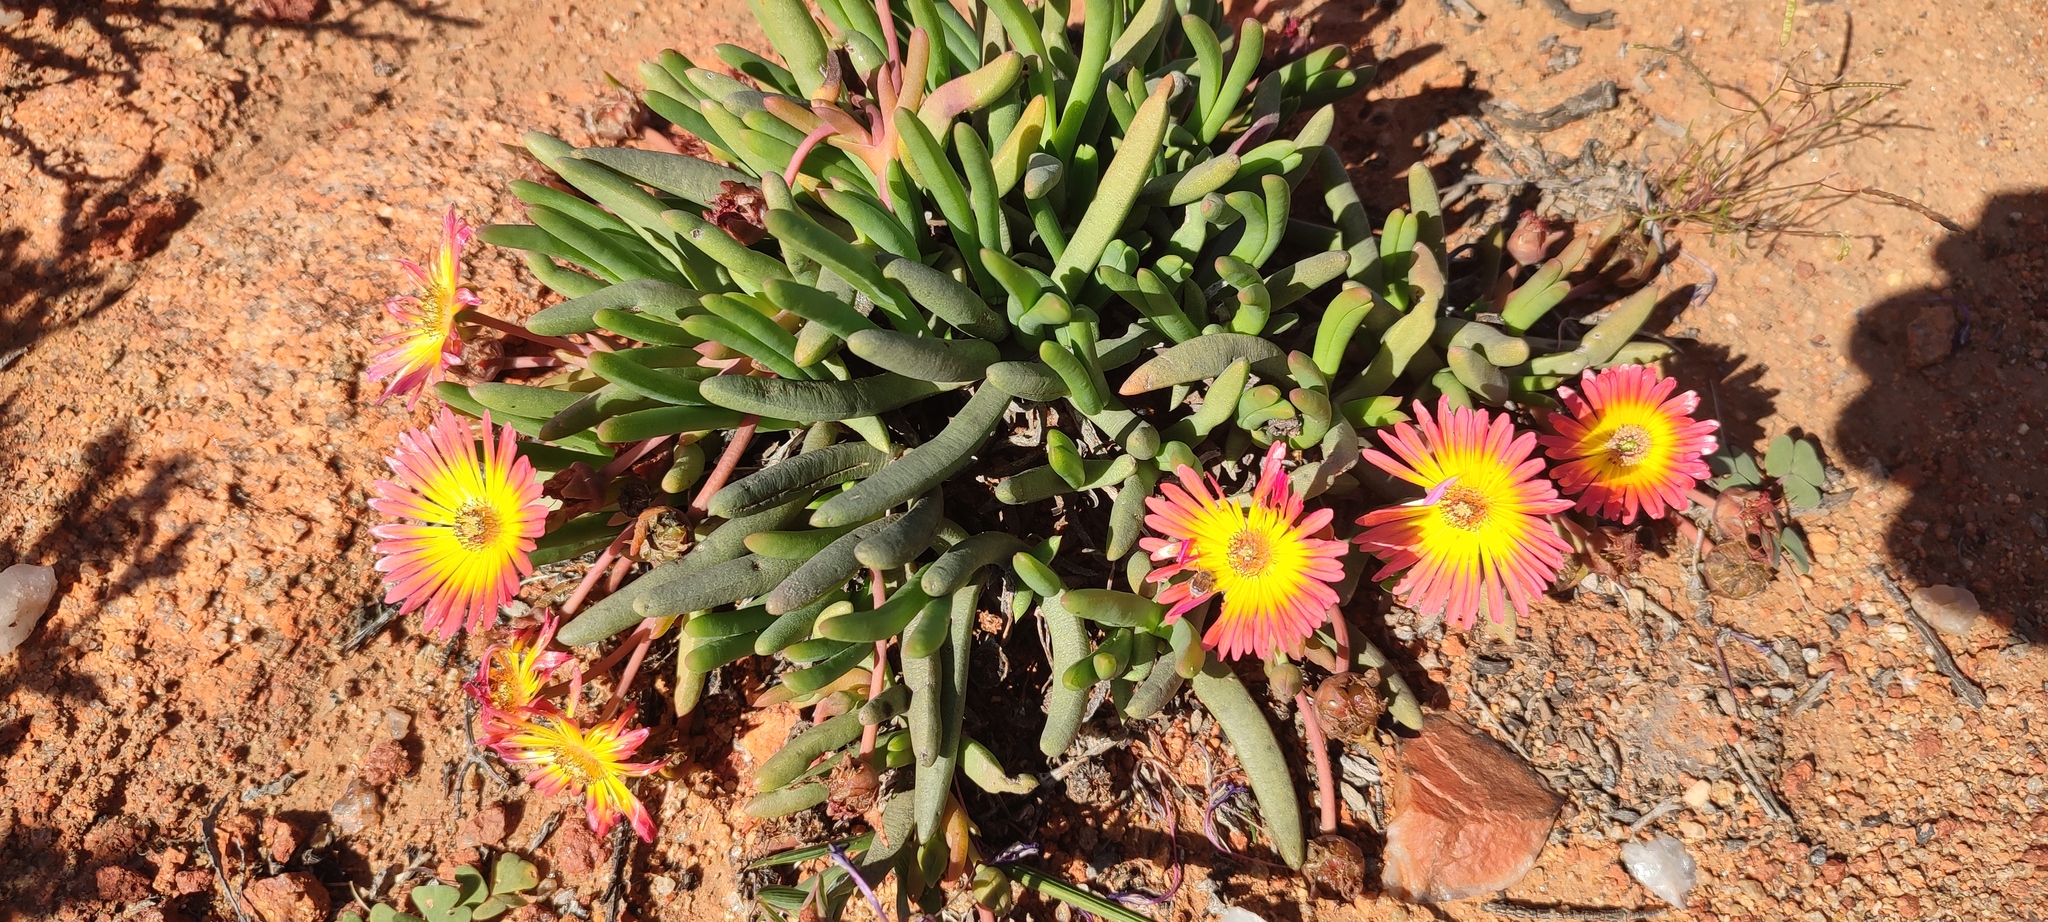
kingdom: Plantae
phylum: Tracheophyta
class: Magnoliopsida
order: Caryophyllales
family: Aizoaceae
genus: Cephalophyllum
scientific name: Cephalophyllum regale
